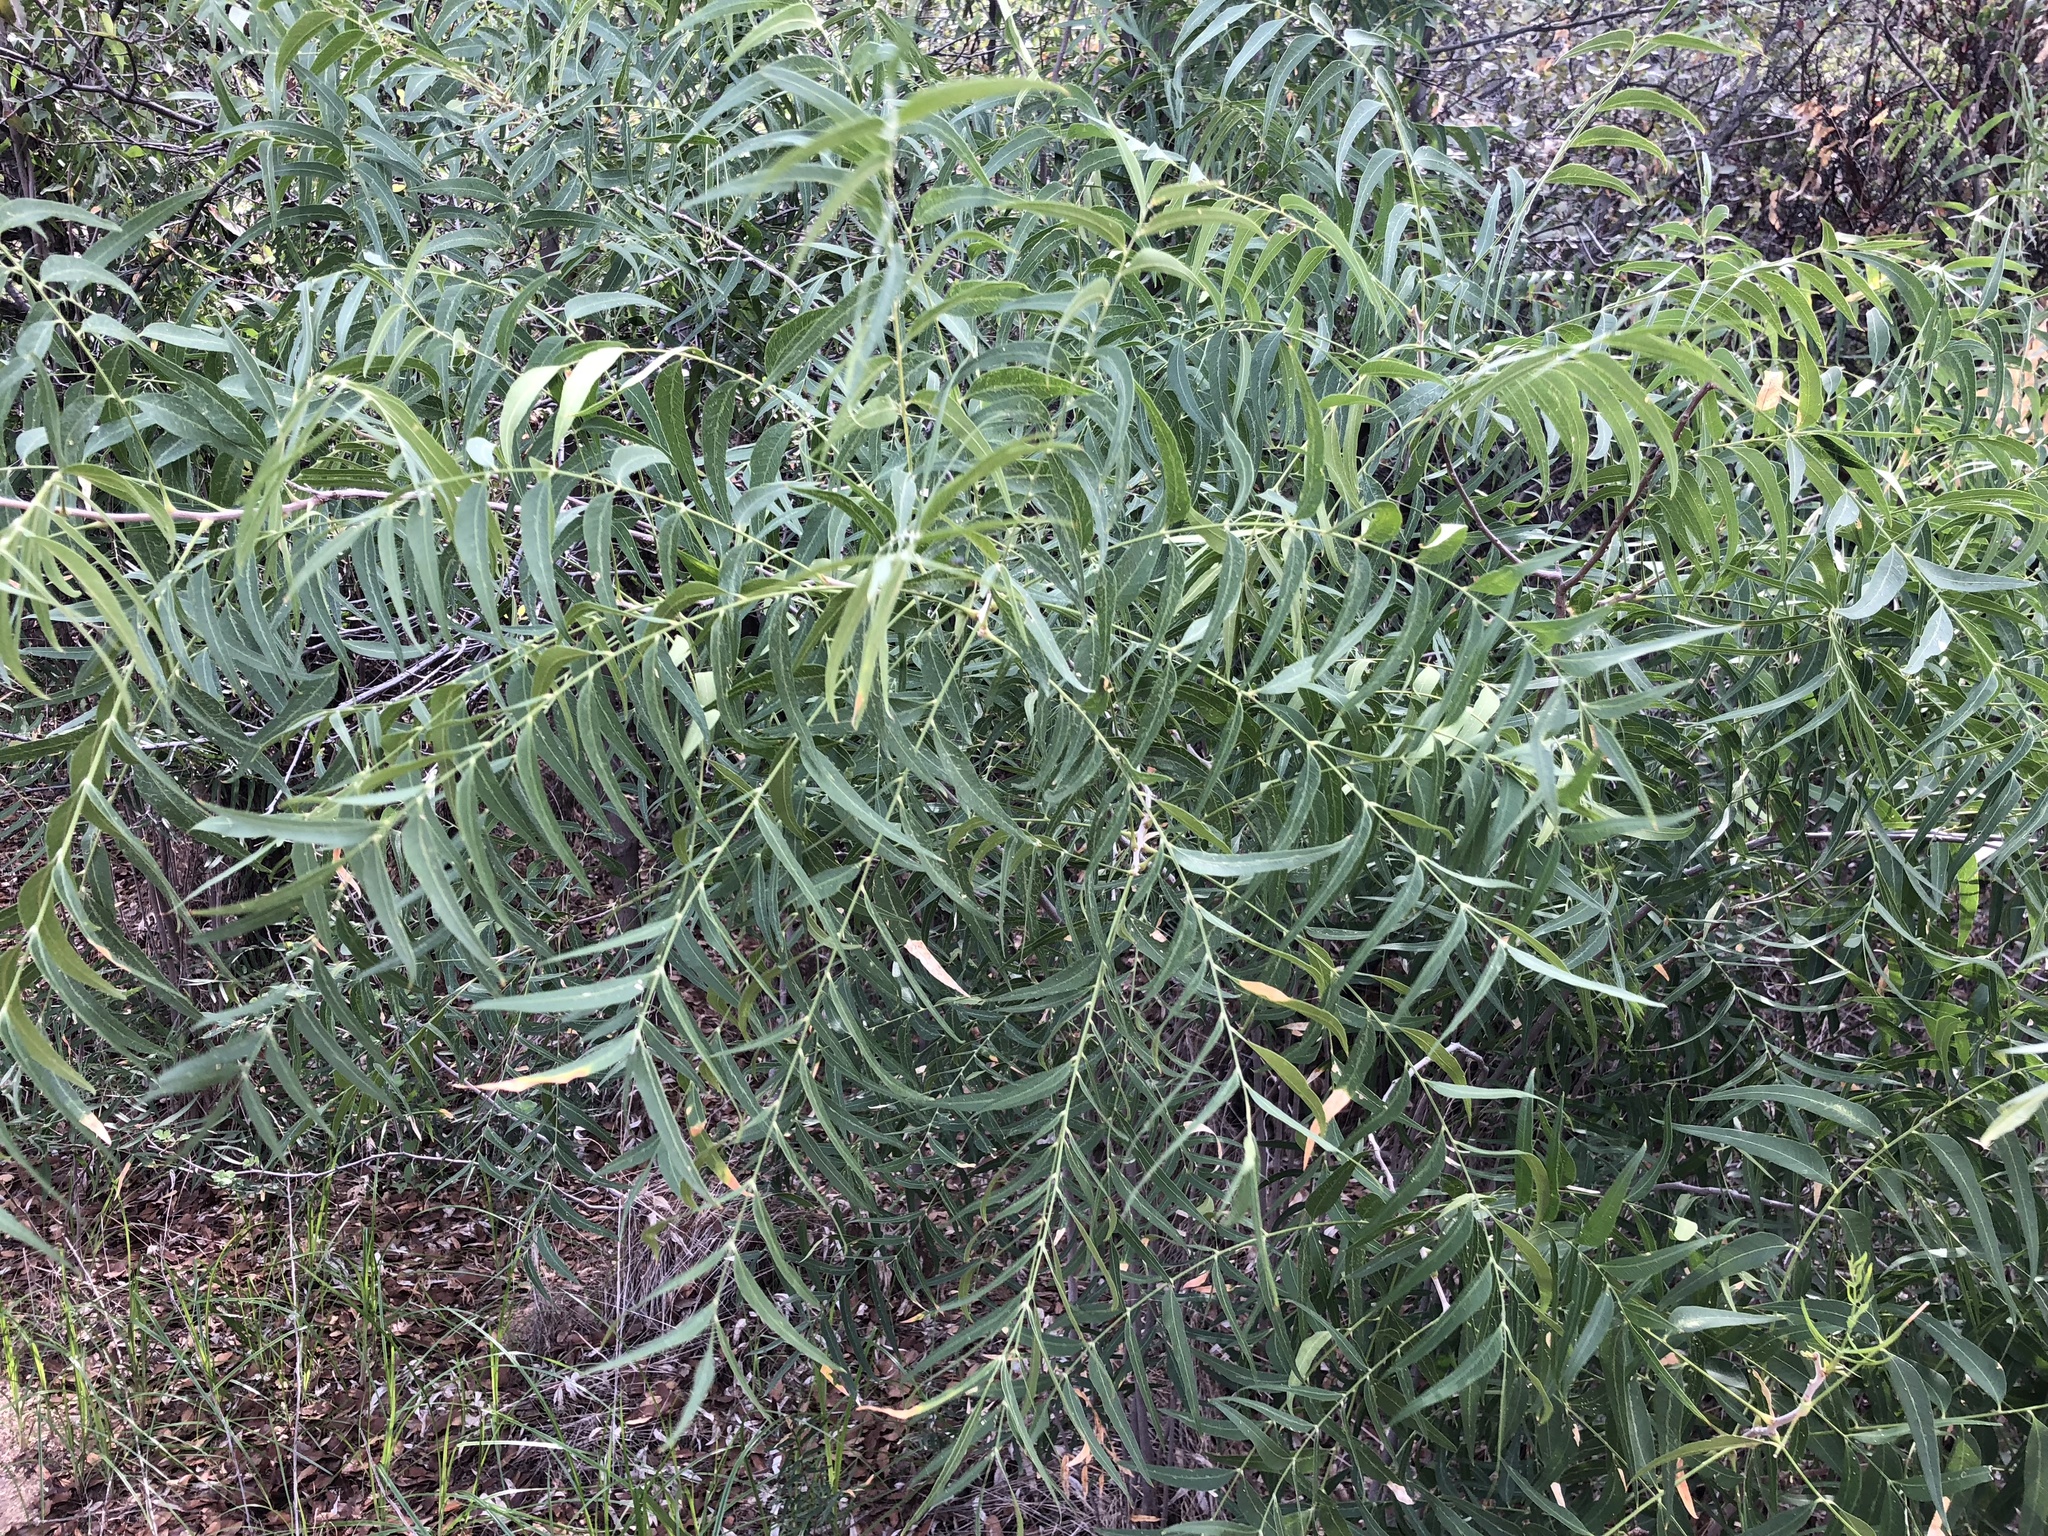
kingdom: Plantae
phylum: Tracheophyta
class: Magnoliopsida
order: Sapindales
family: Sapindaceae
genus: Sapindus
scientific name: Sapindus drummondii
